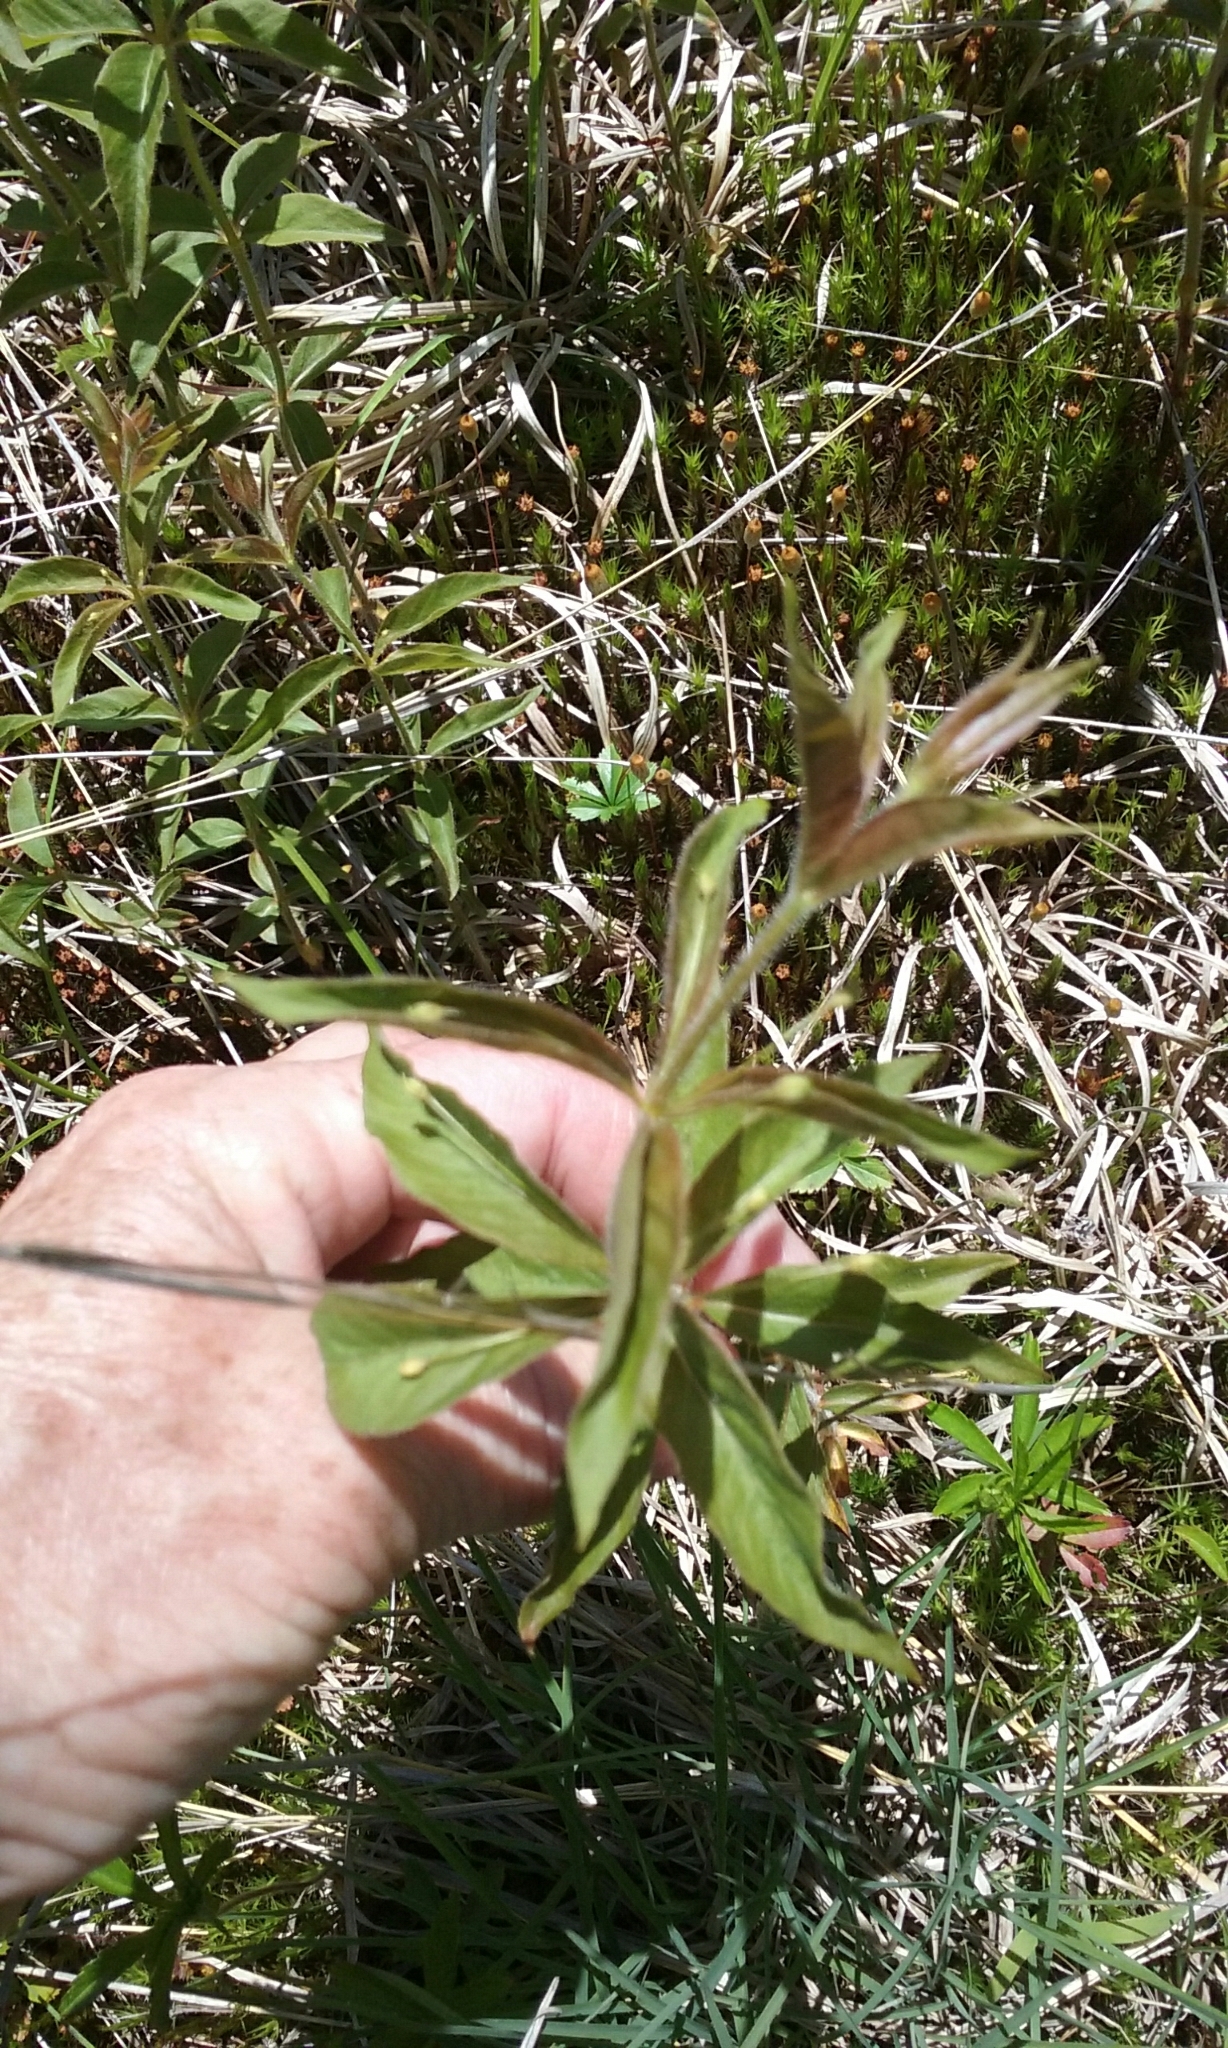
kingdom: Plantae
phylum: Tracheophyta
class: Magnoliopsida
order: Ericales
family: Primulaceae
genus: Lysimachia
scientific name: Lysimachia quadrifolia
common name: Whorled loosestrife
